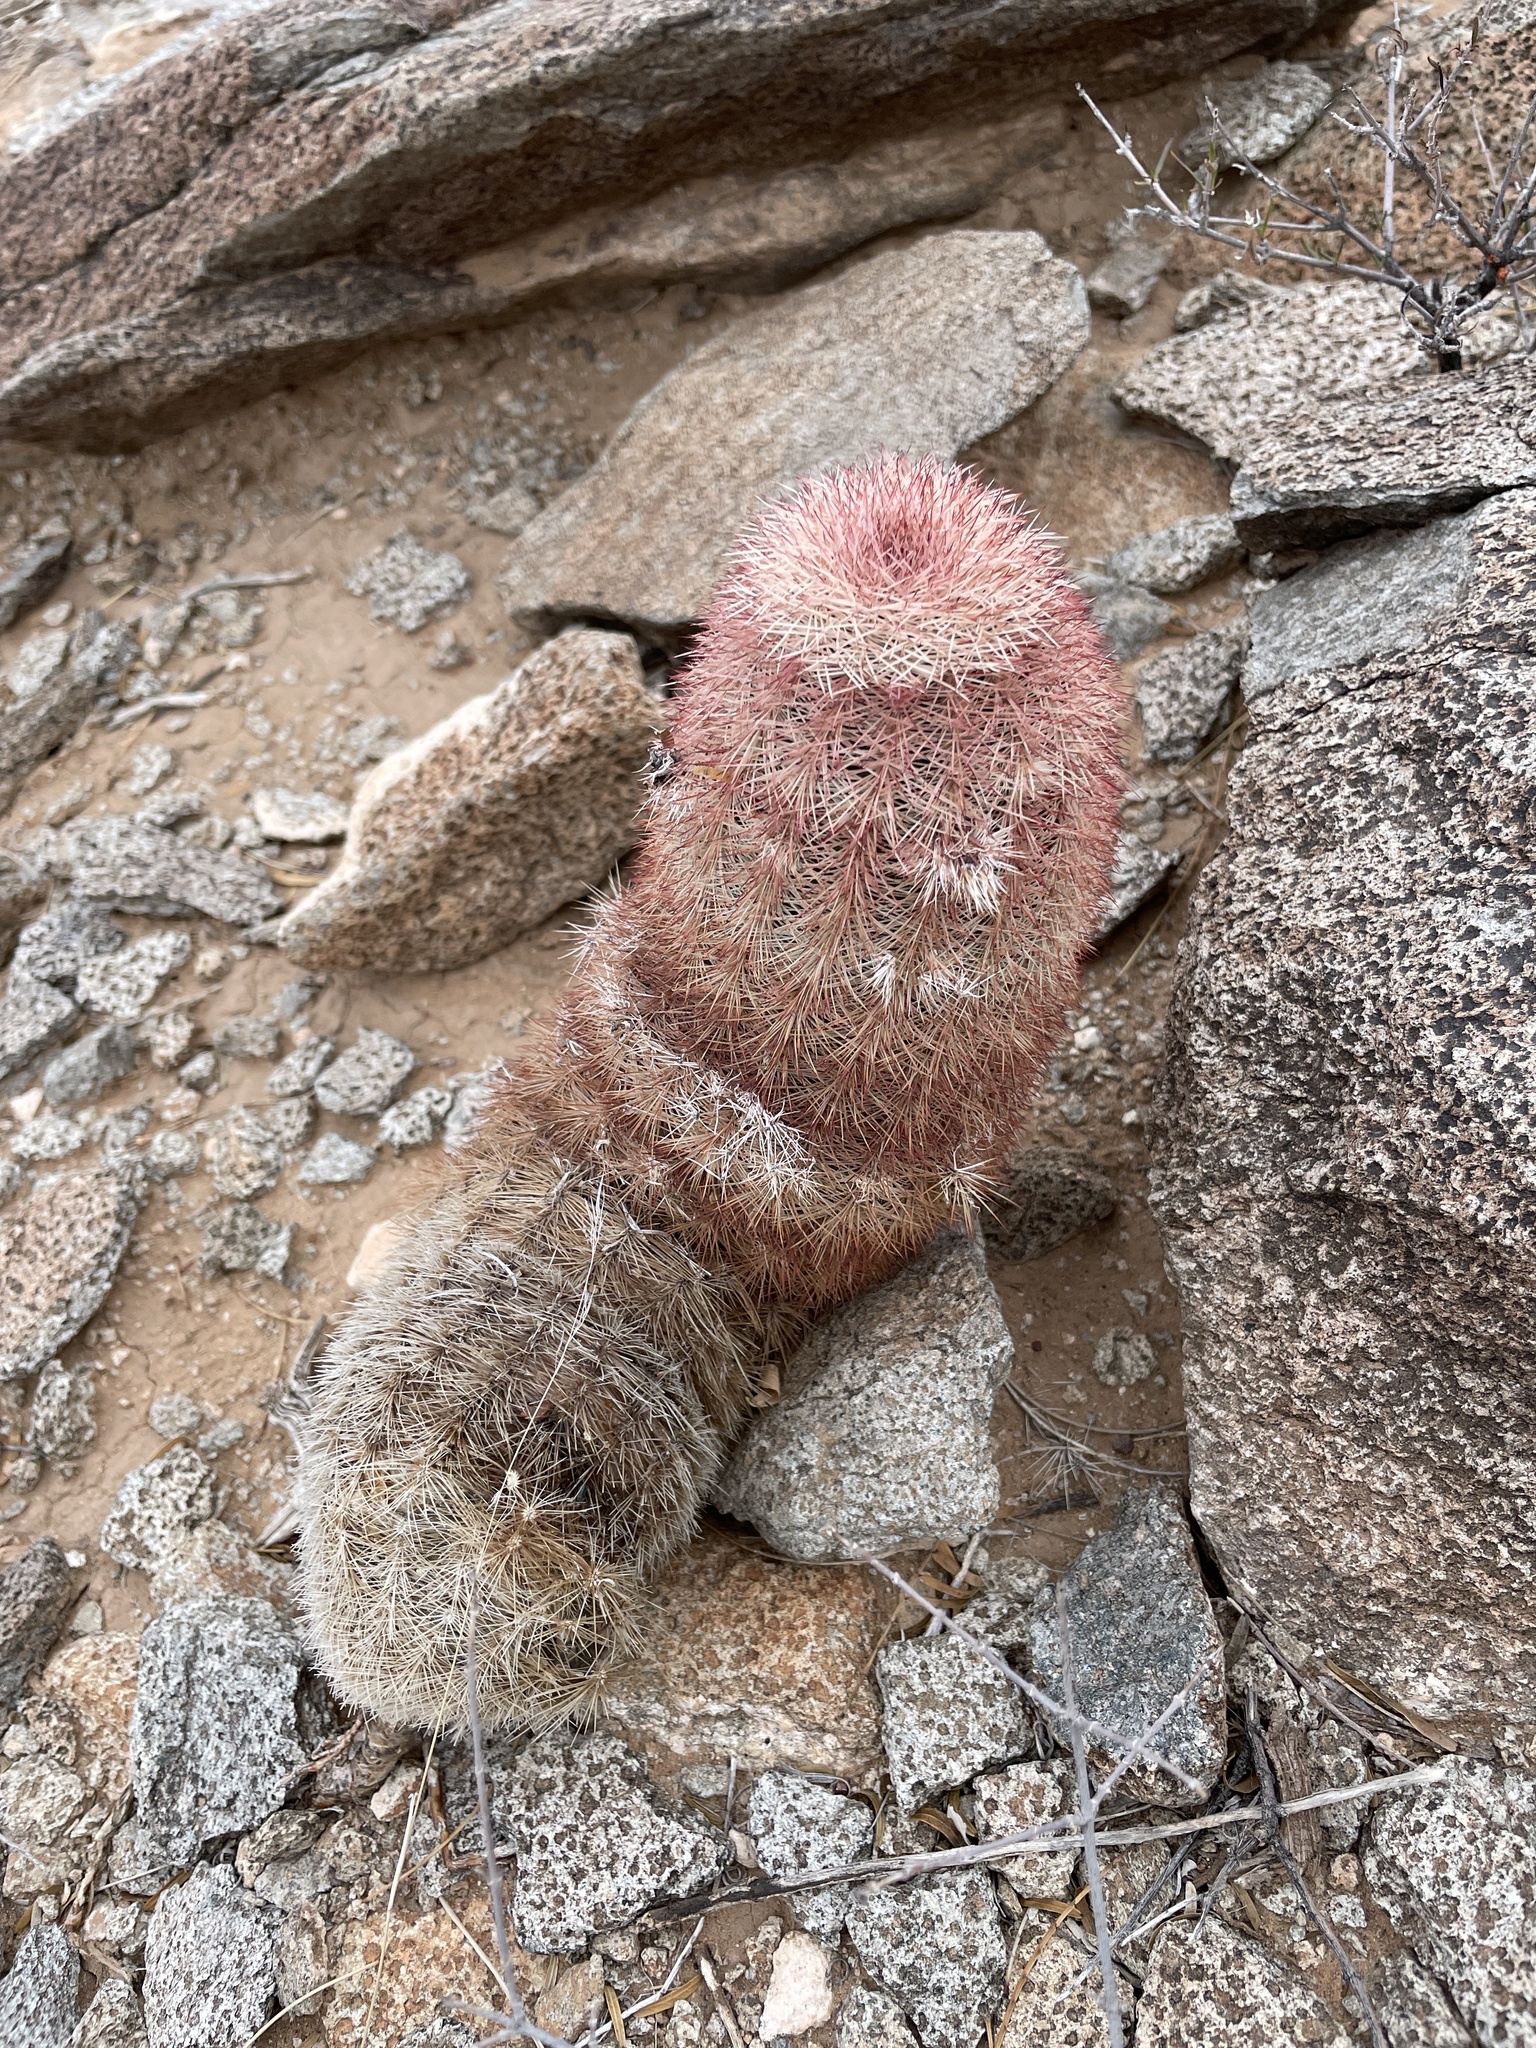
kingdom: Plantae
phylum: Tracheophyta
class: Magnoliopsida
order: Caryophyllales
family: Cactaceae
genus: Echinocereus
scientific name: Echinocereus dasyacanthus
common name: Spiny hedgehog cactus
